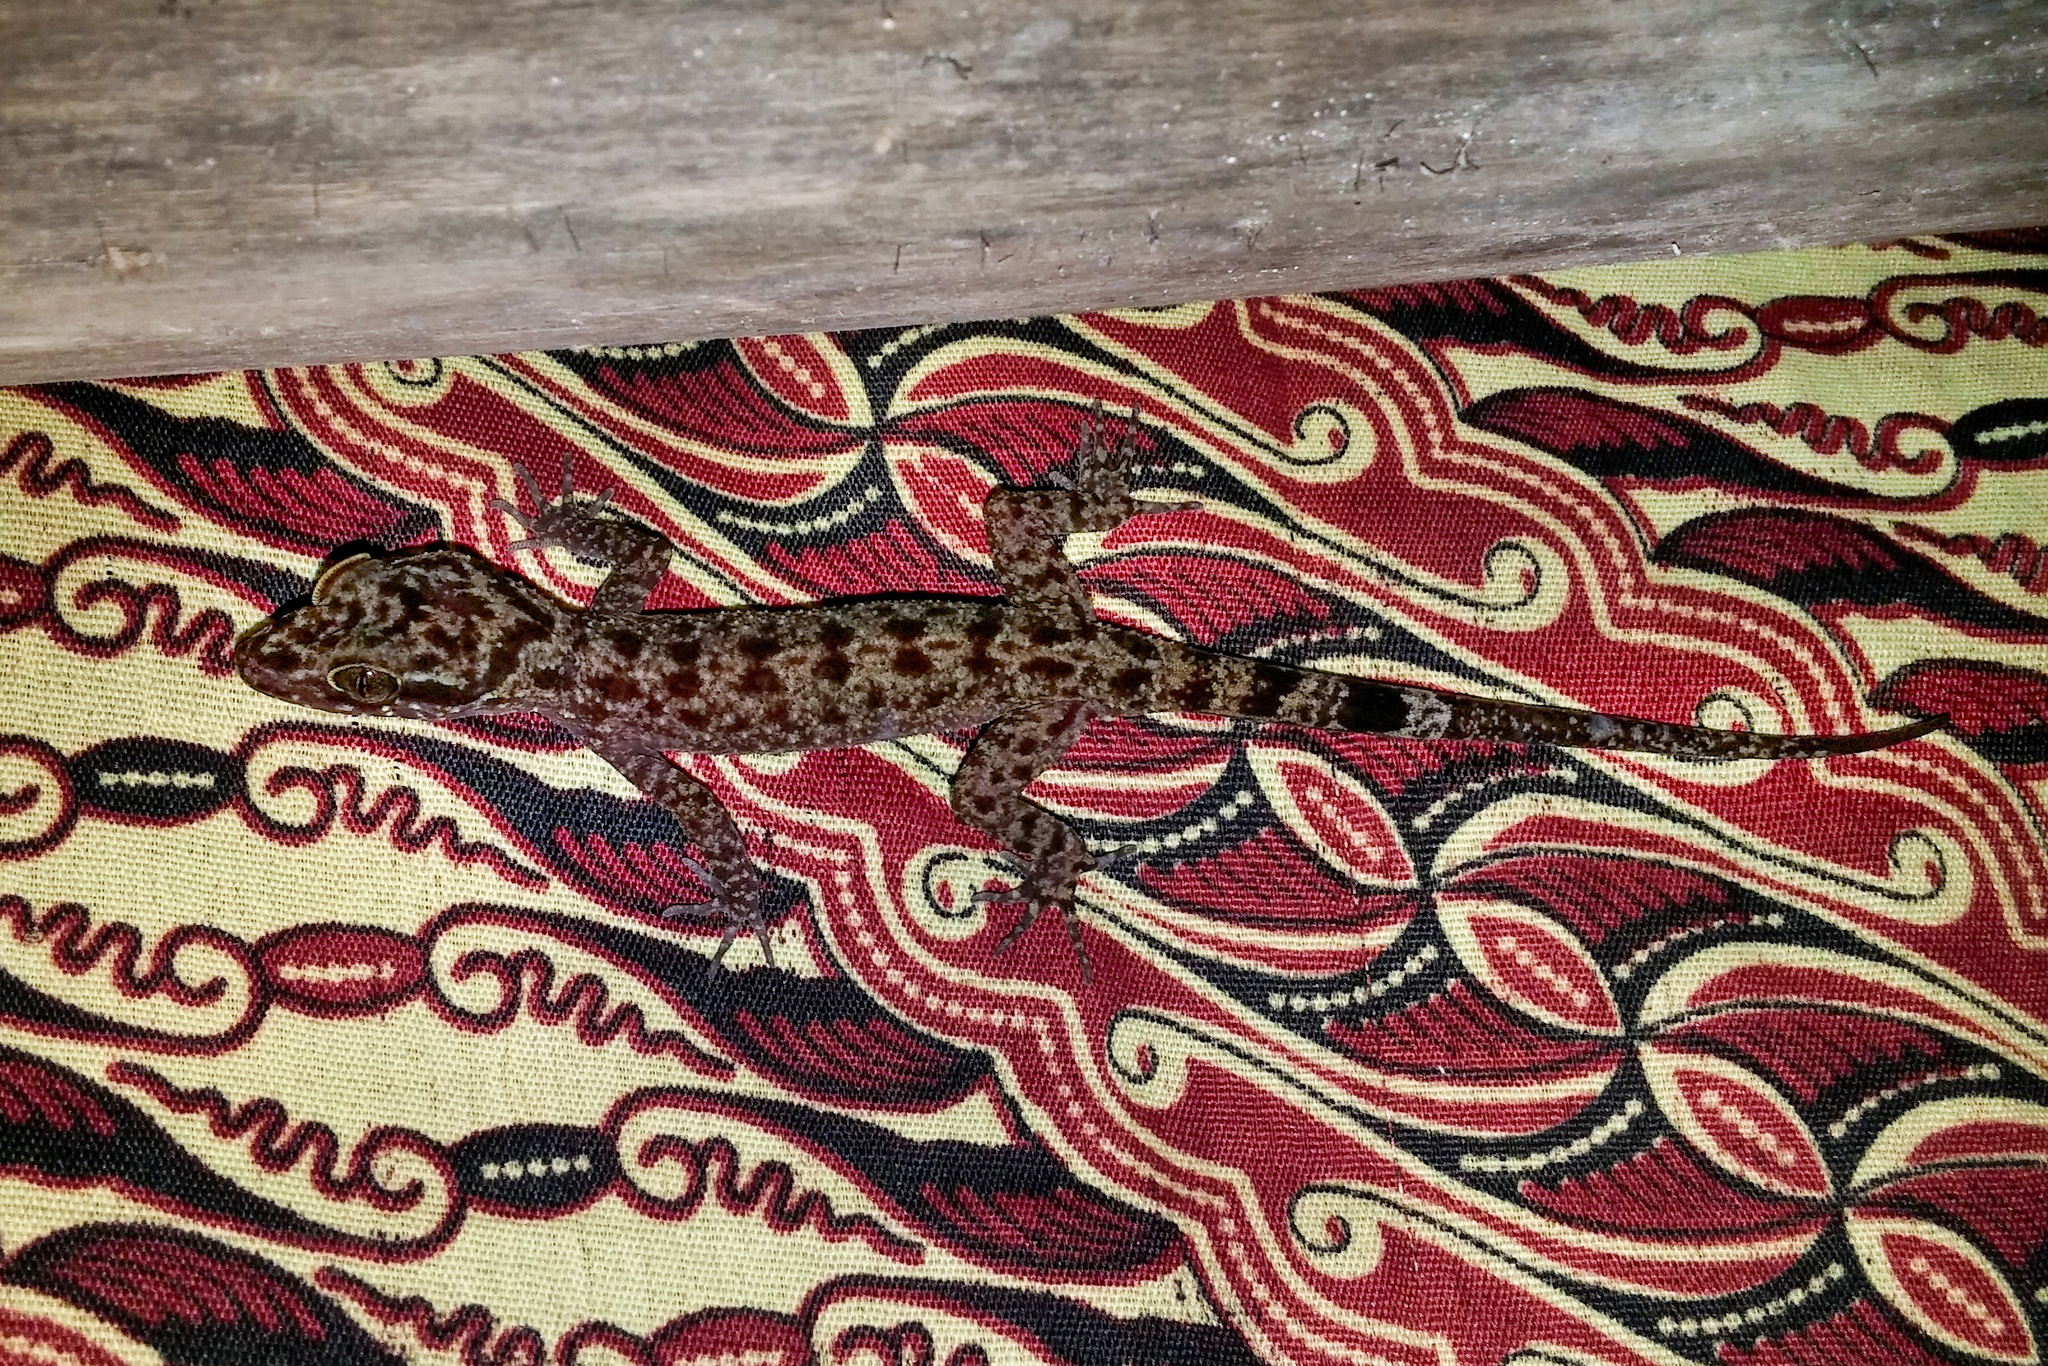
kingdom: Animalia
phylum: Chordata
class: Squamata
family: Gekkonidae
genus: Cyrtodactylus
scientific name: Cyrtodactylus papuensis
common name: Papua bow-fingered gecko
